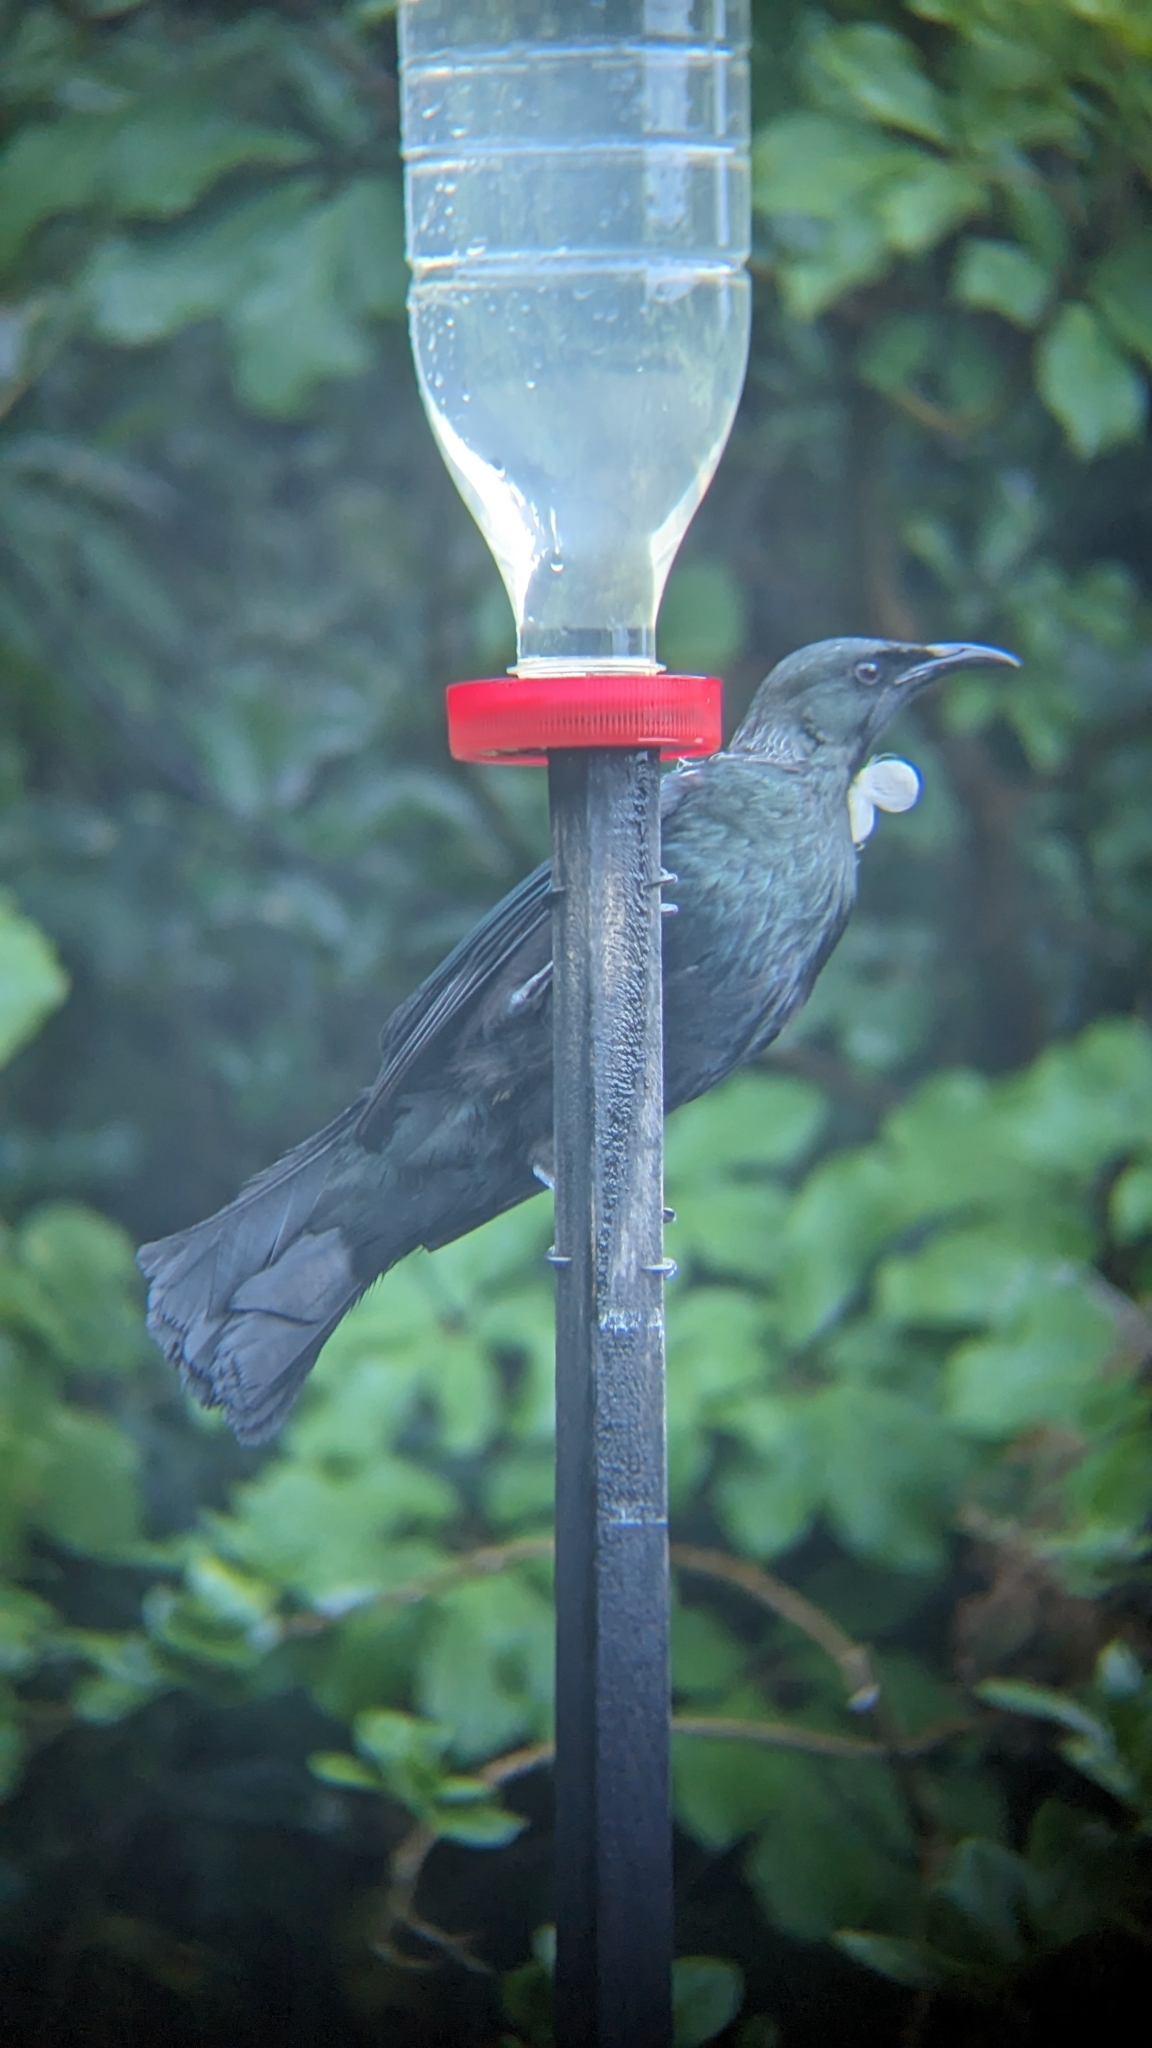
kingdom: Animalia
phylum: Chordata
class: Aves
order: Passeriformes
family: Meliphagidae
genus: Prosthemadera
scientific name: Prosthemadera novaeseelandiae
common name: Tui
